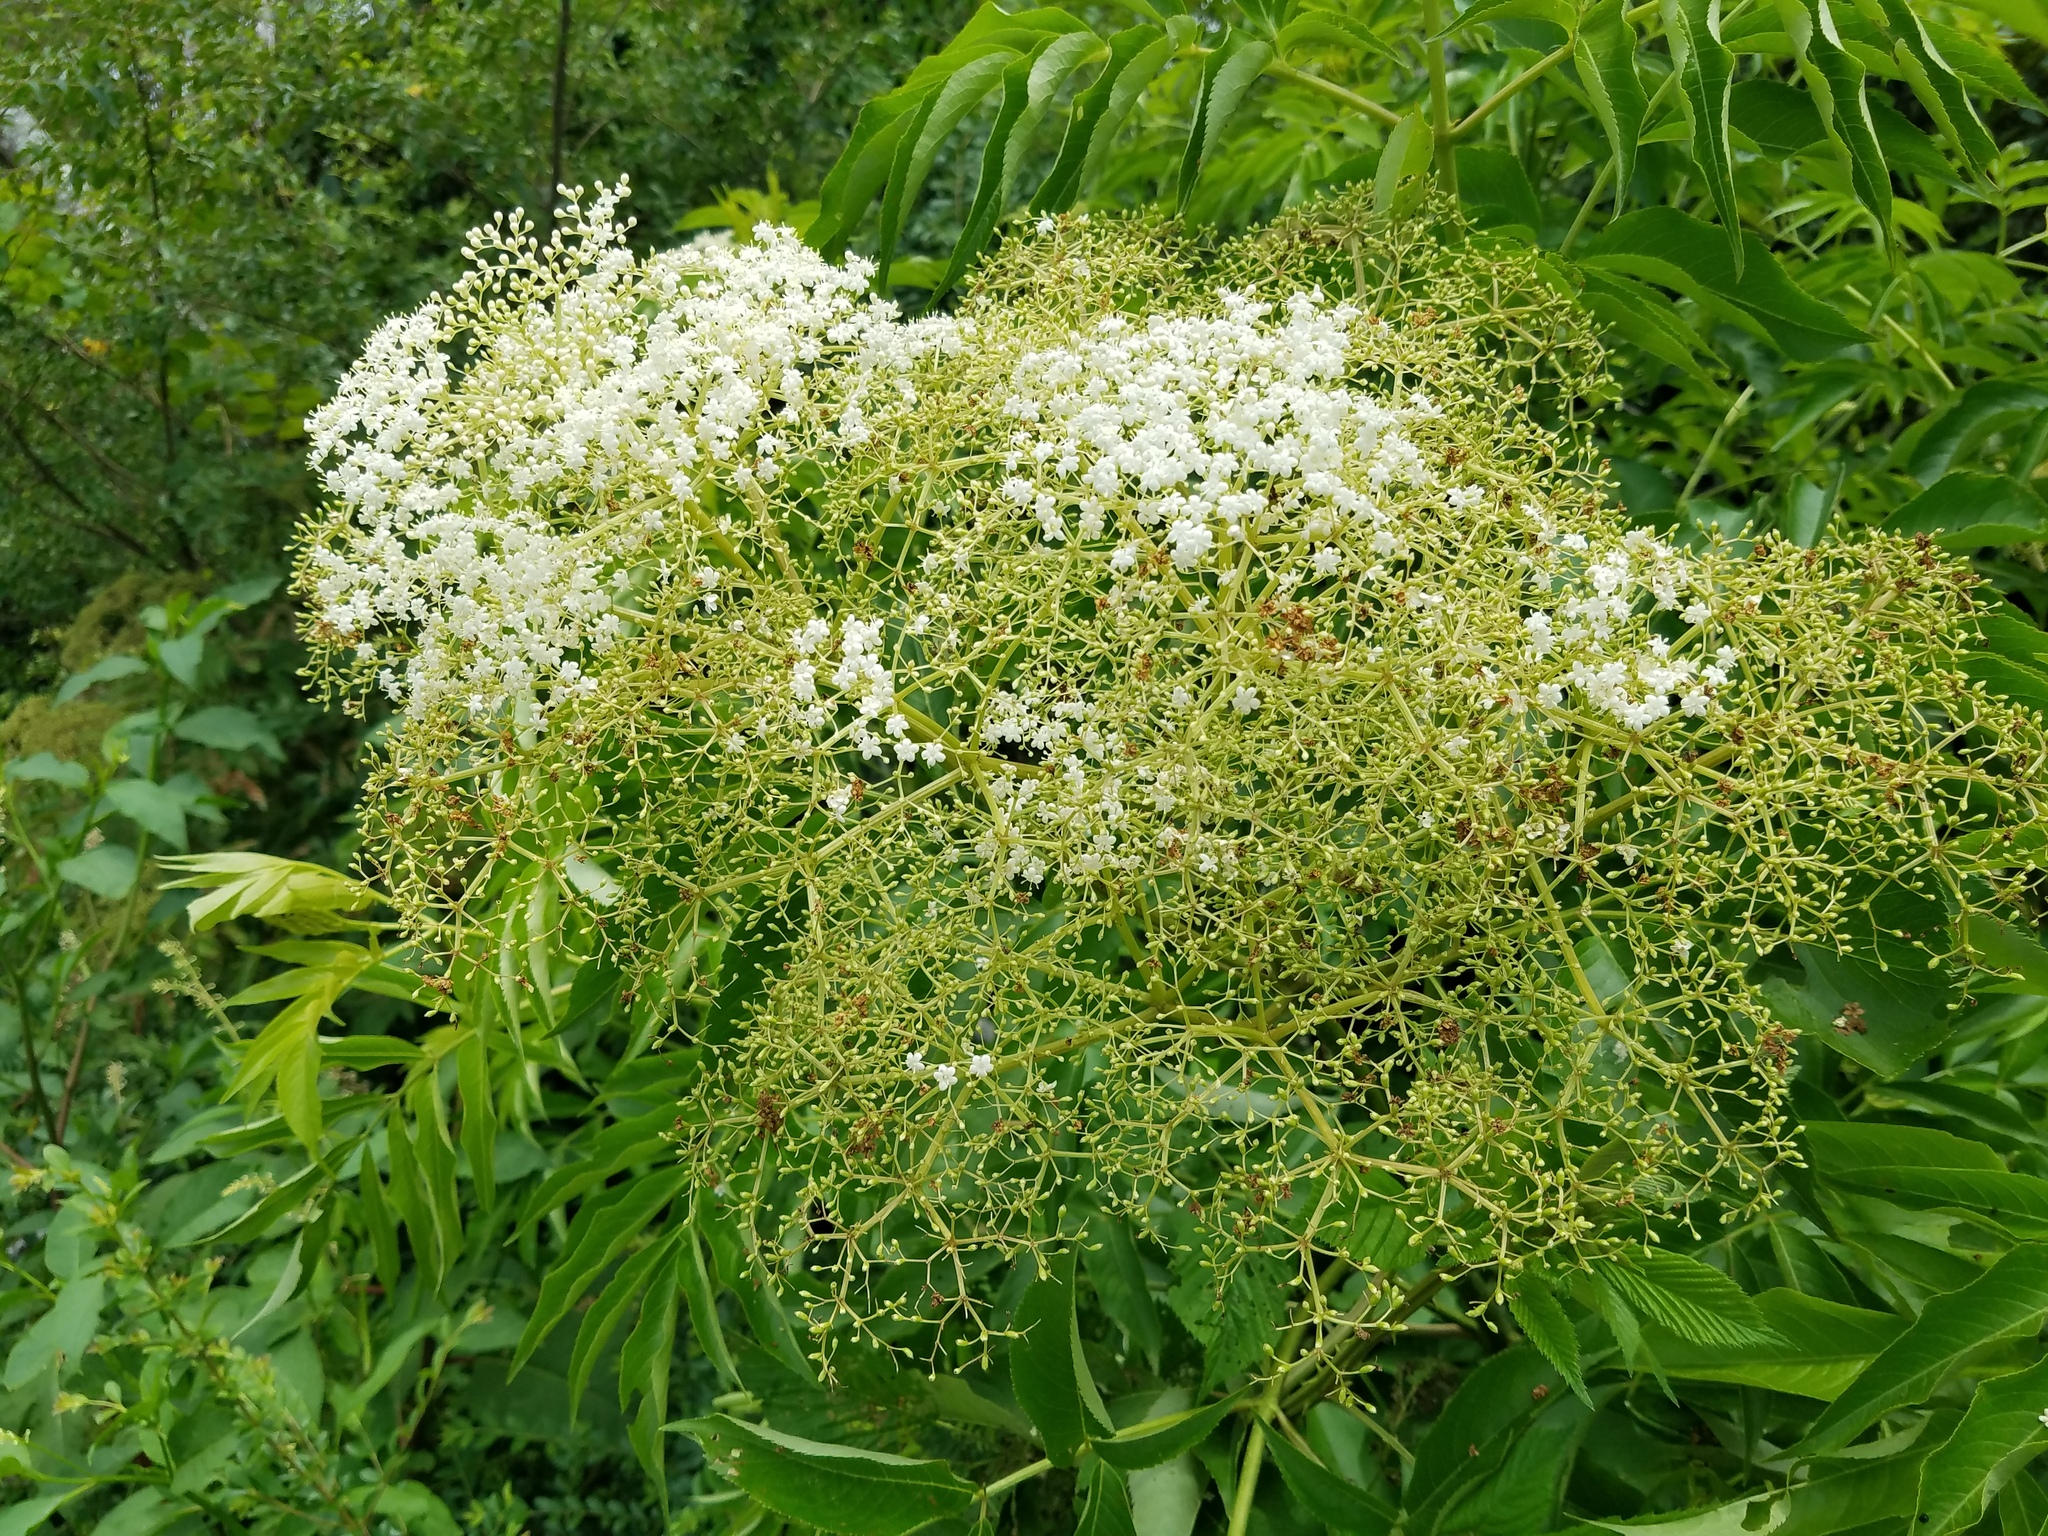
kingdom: Plantae
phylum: Tracheophyta
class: Magnoliopsida
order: Dipsacales
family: Viburnaceae
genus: Sambucus
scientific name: Sambucus canadensis
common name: American elder
